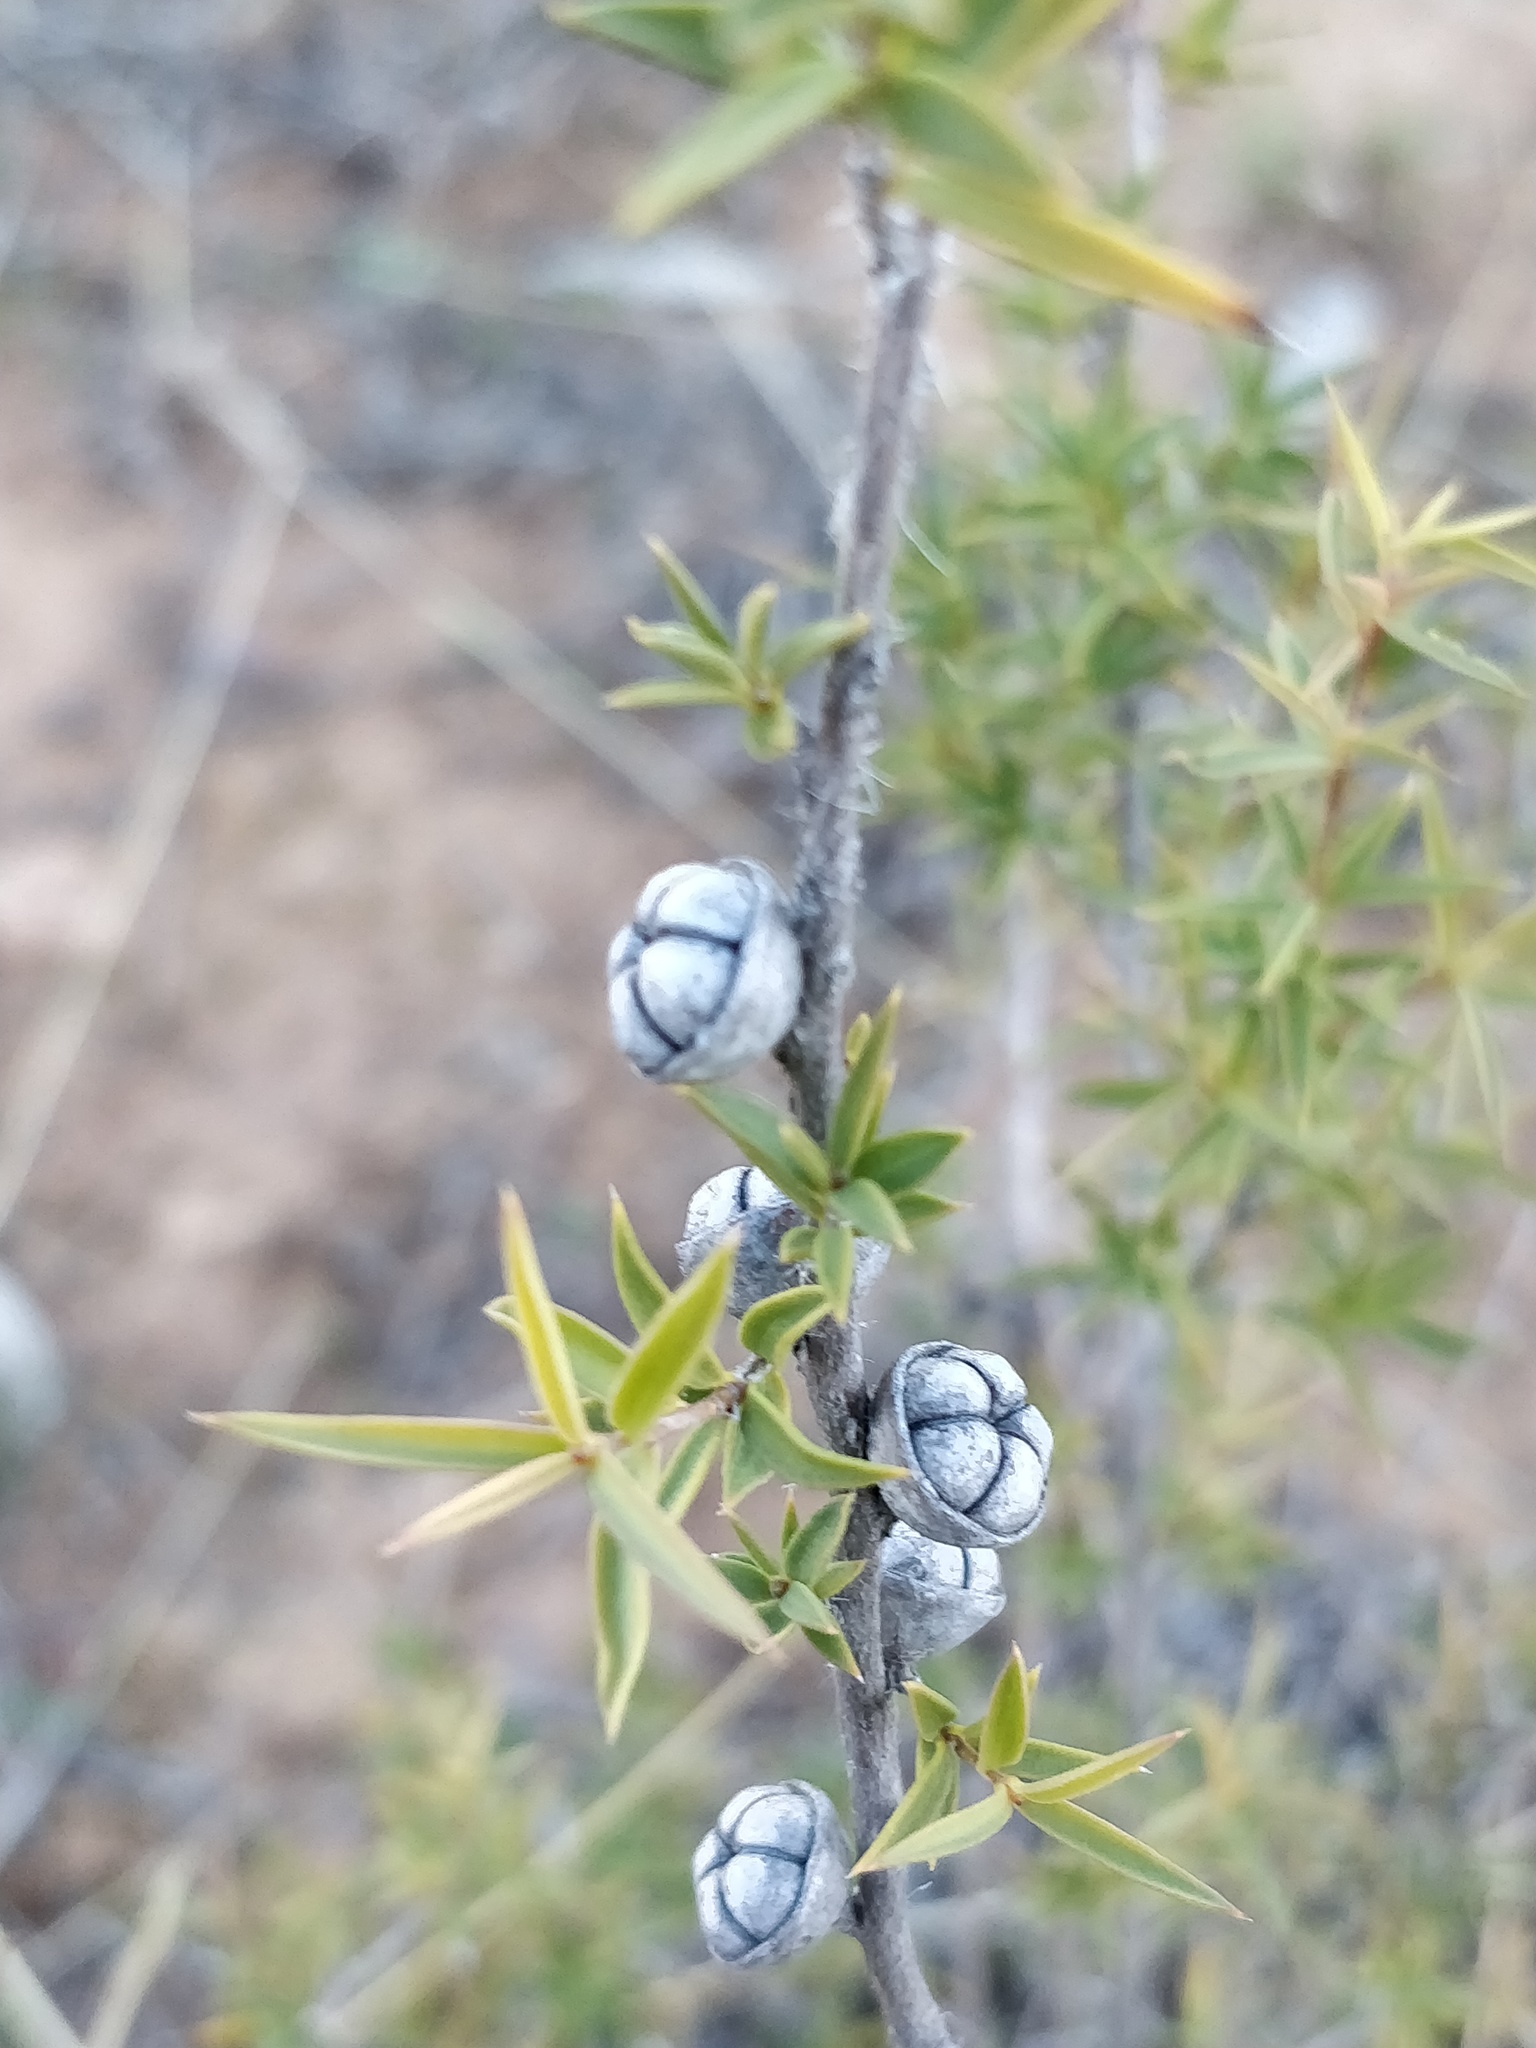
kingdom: Plantae
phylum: Tracheophyta
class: Magnoliopsida
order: Myrtales
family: Myrtaceae
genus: Leptospermum
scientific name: Leptospermum arachnoides
